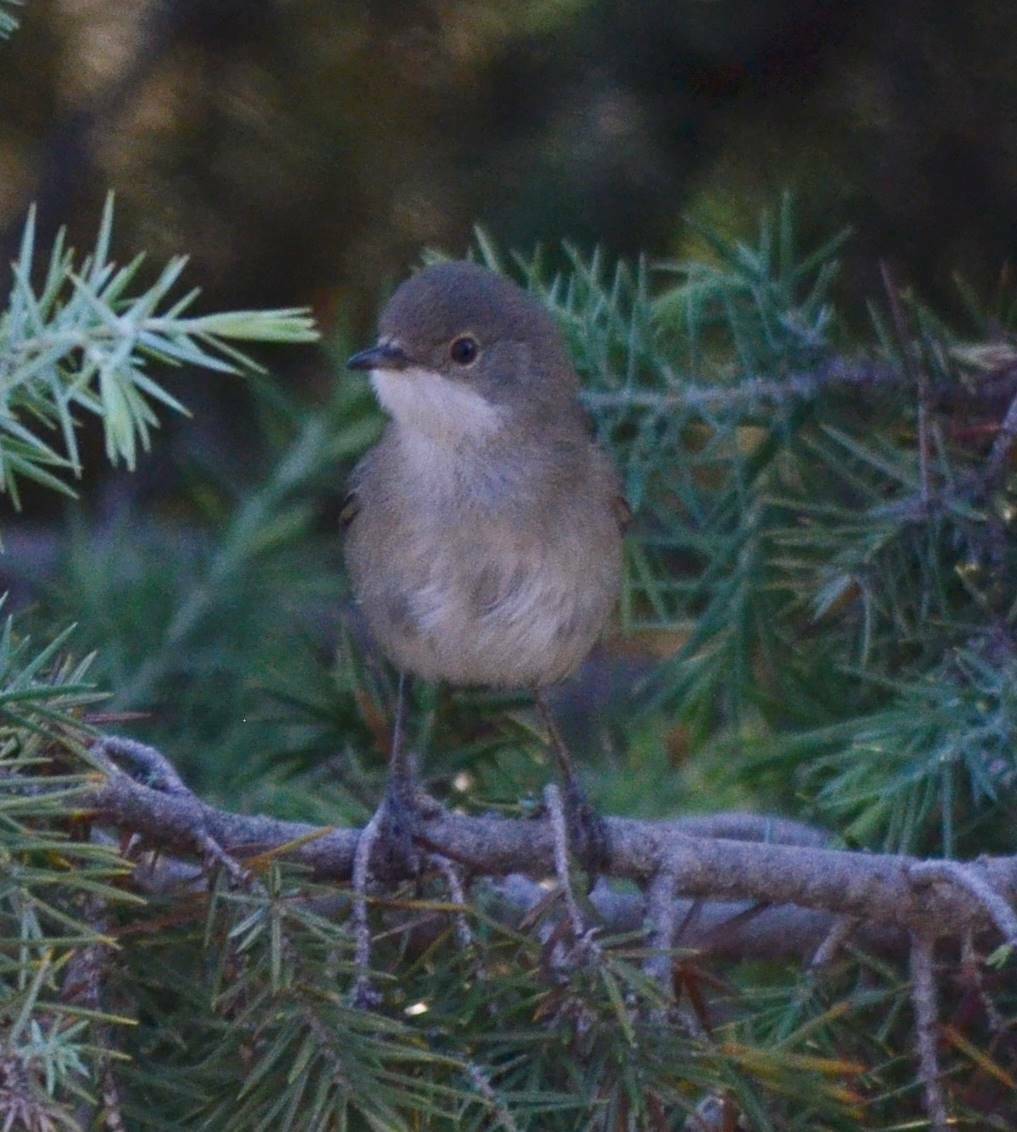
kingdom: Animalia
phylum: Chordata
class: Aves
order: Passeriformes
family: Sylviidae
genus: Curruca
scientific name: Curruca melanocephala
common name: Sardinian warbler
